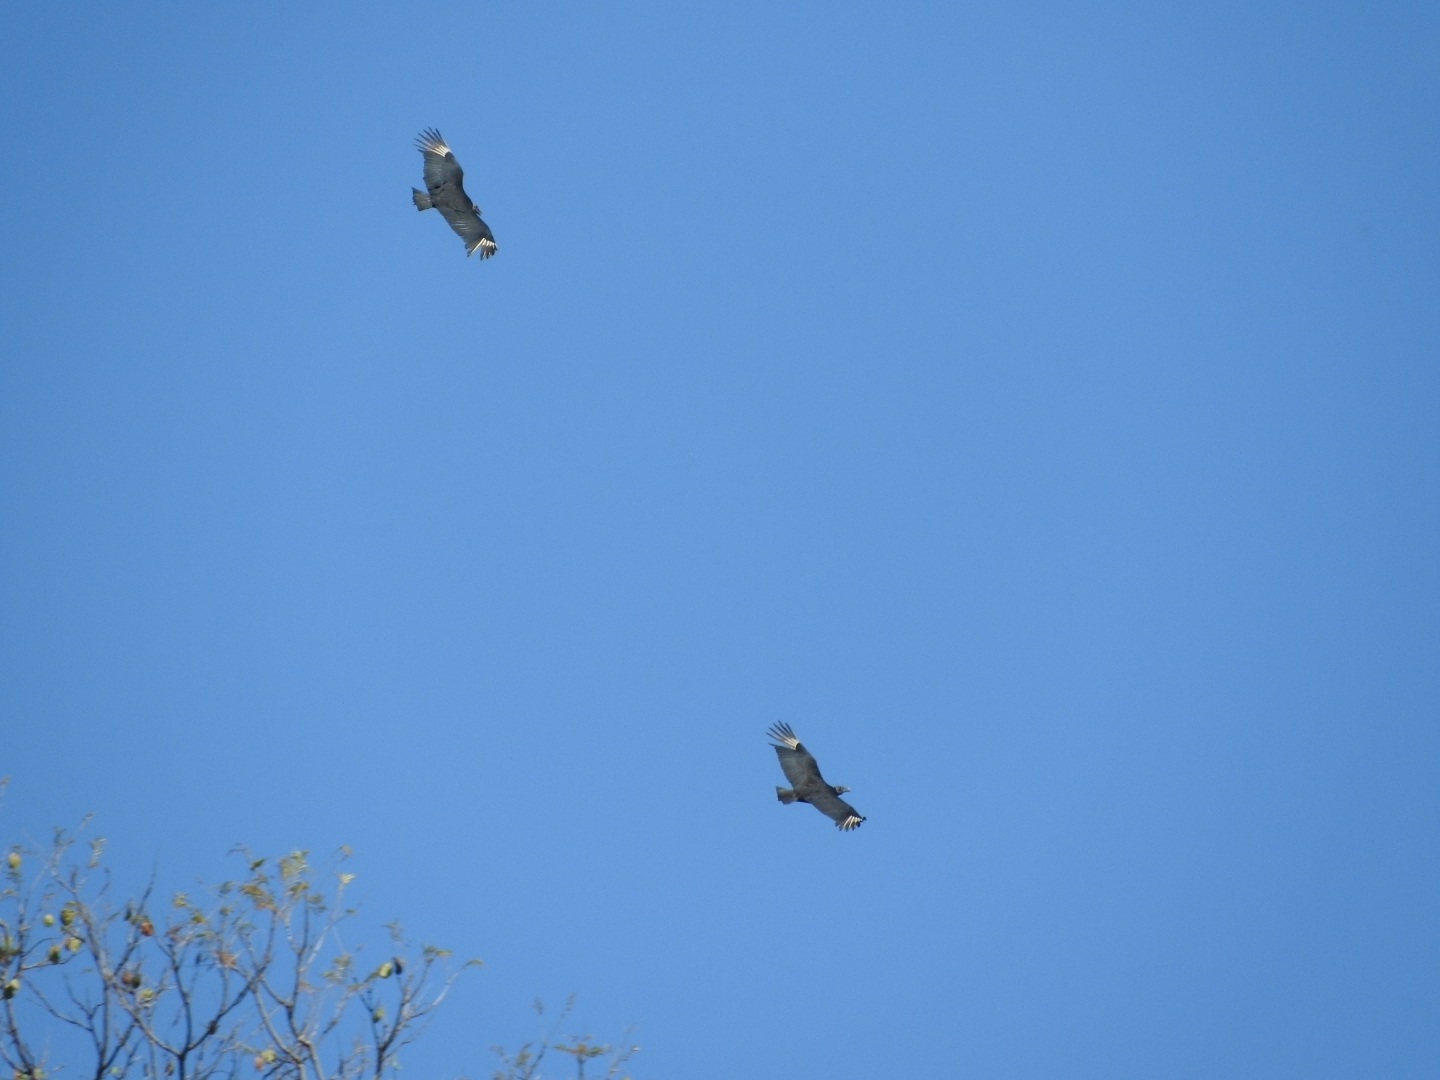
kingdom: Animalia
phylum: Chordata
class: Aves
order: Accipitriformes
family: Cathartidae
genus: Coragyps
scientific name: Coragyps atratus
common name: Black vulture
